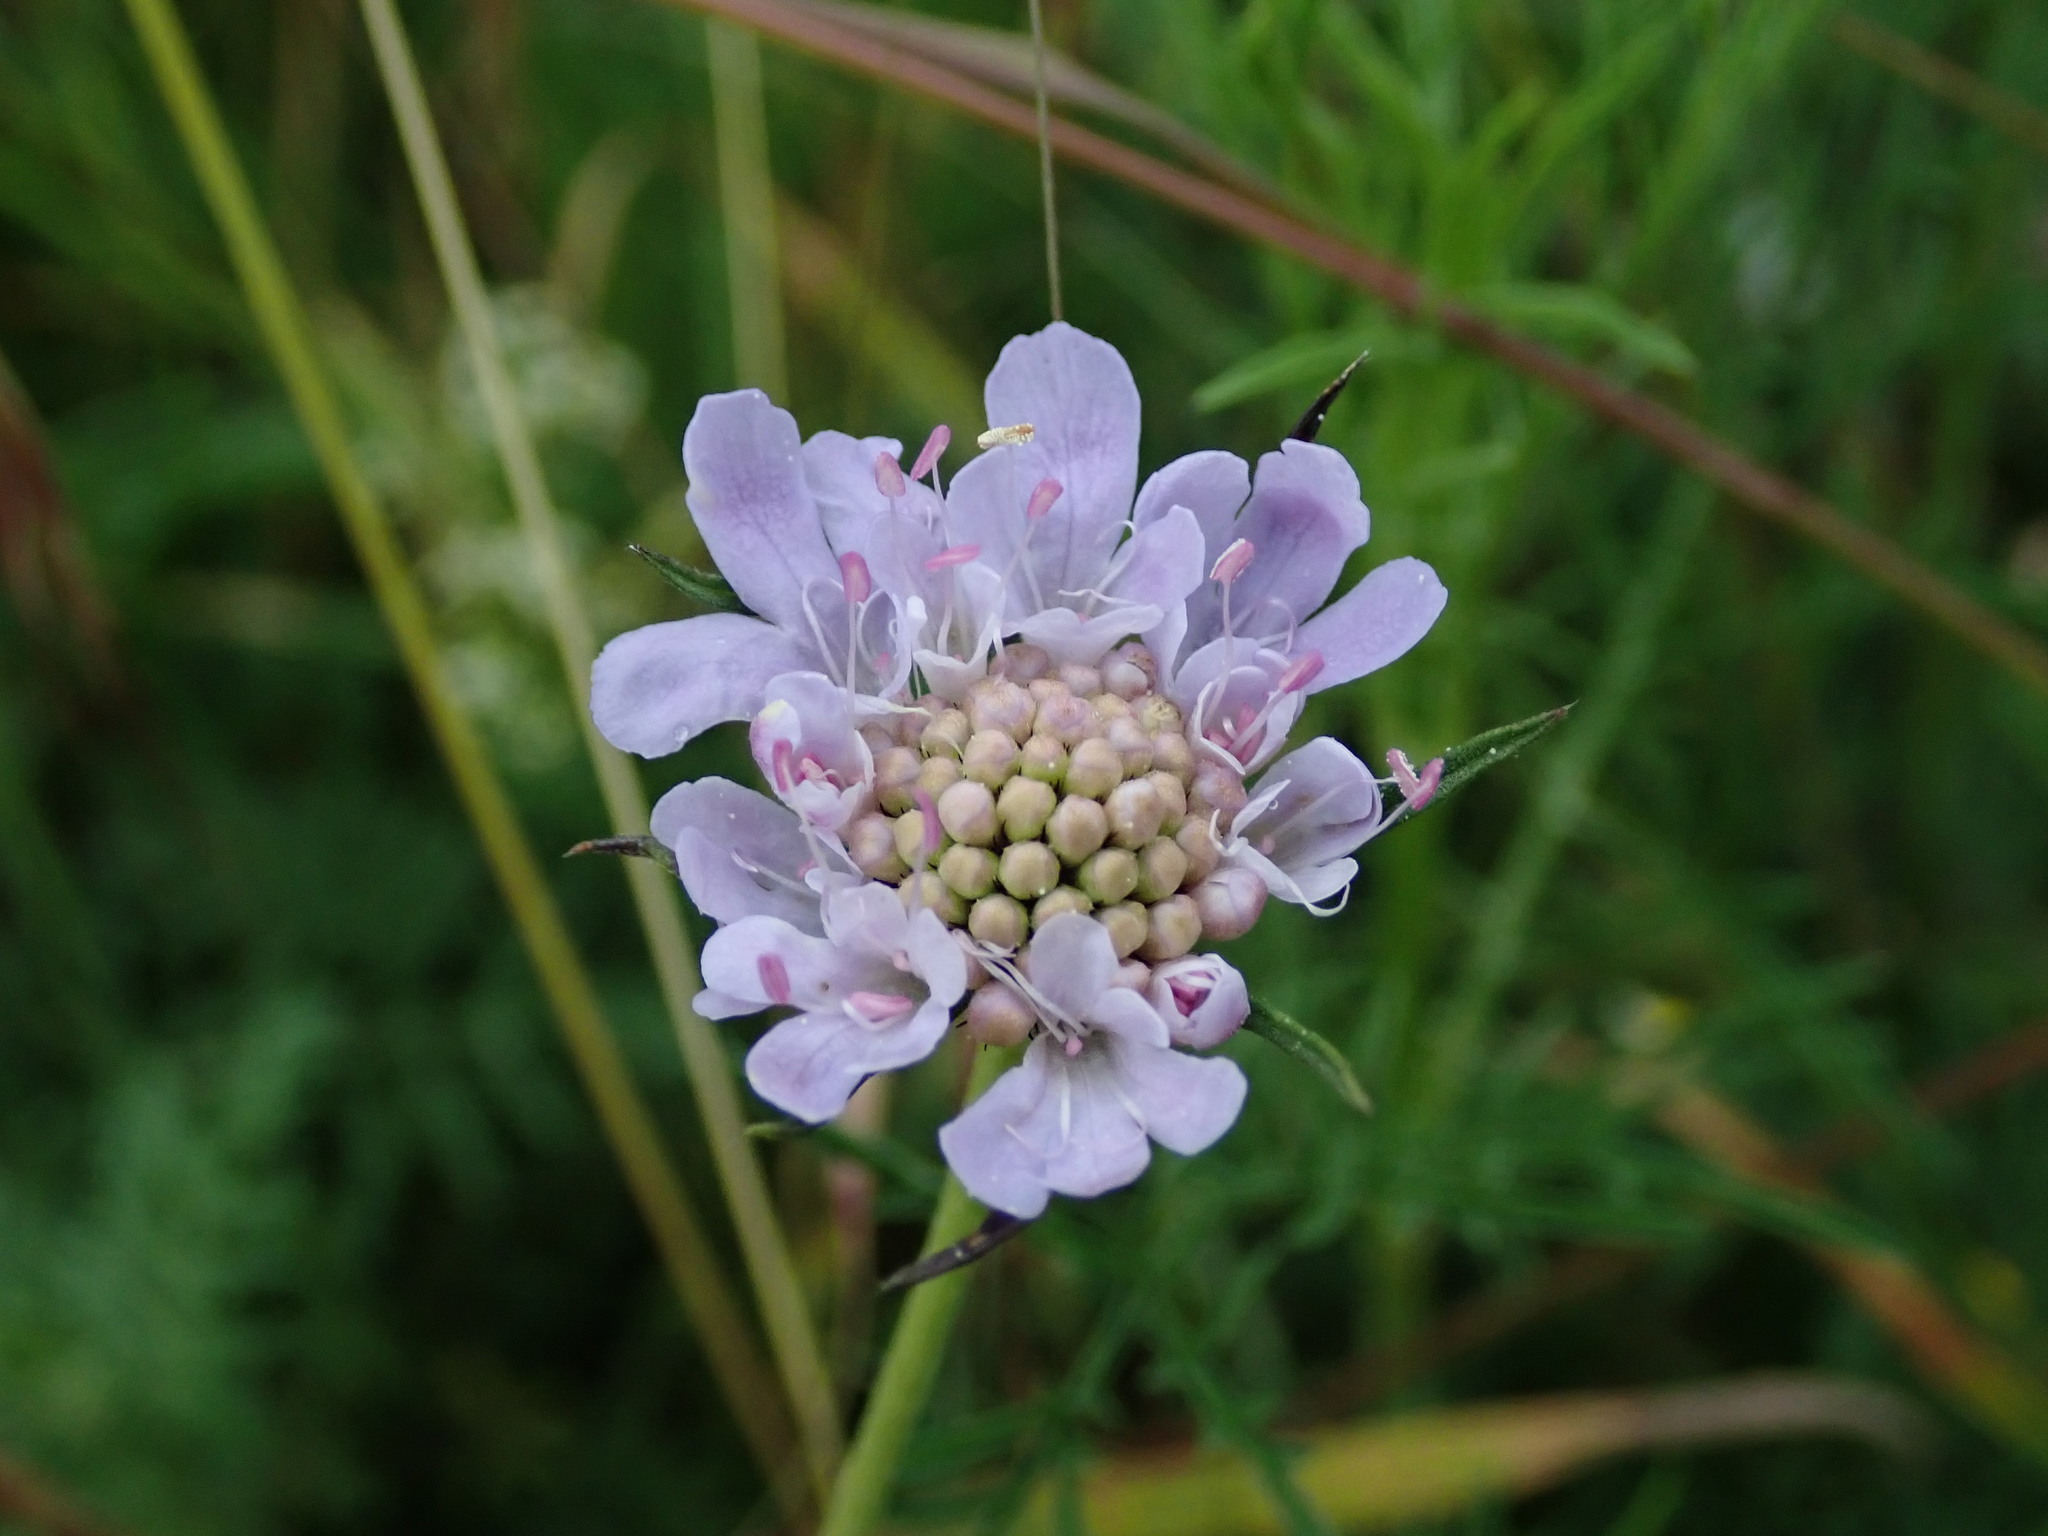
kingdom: Plantae
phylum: Tracheophyta
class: Magnoliopsida
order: Dipsacales
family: Caprifoliaceae
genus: Scabiosa
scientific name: Scabiosa columbaria
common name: Small scabious
